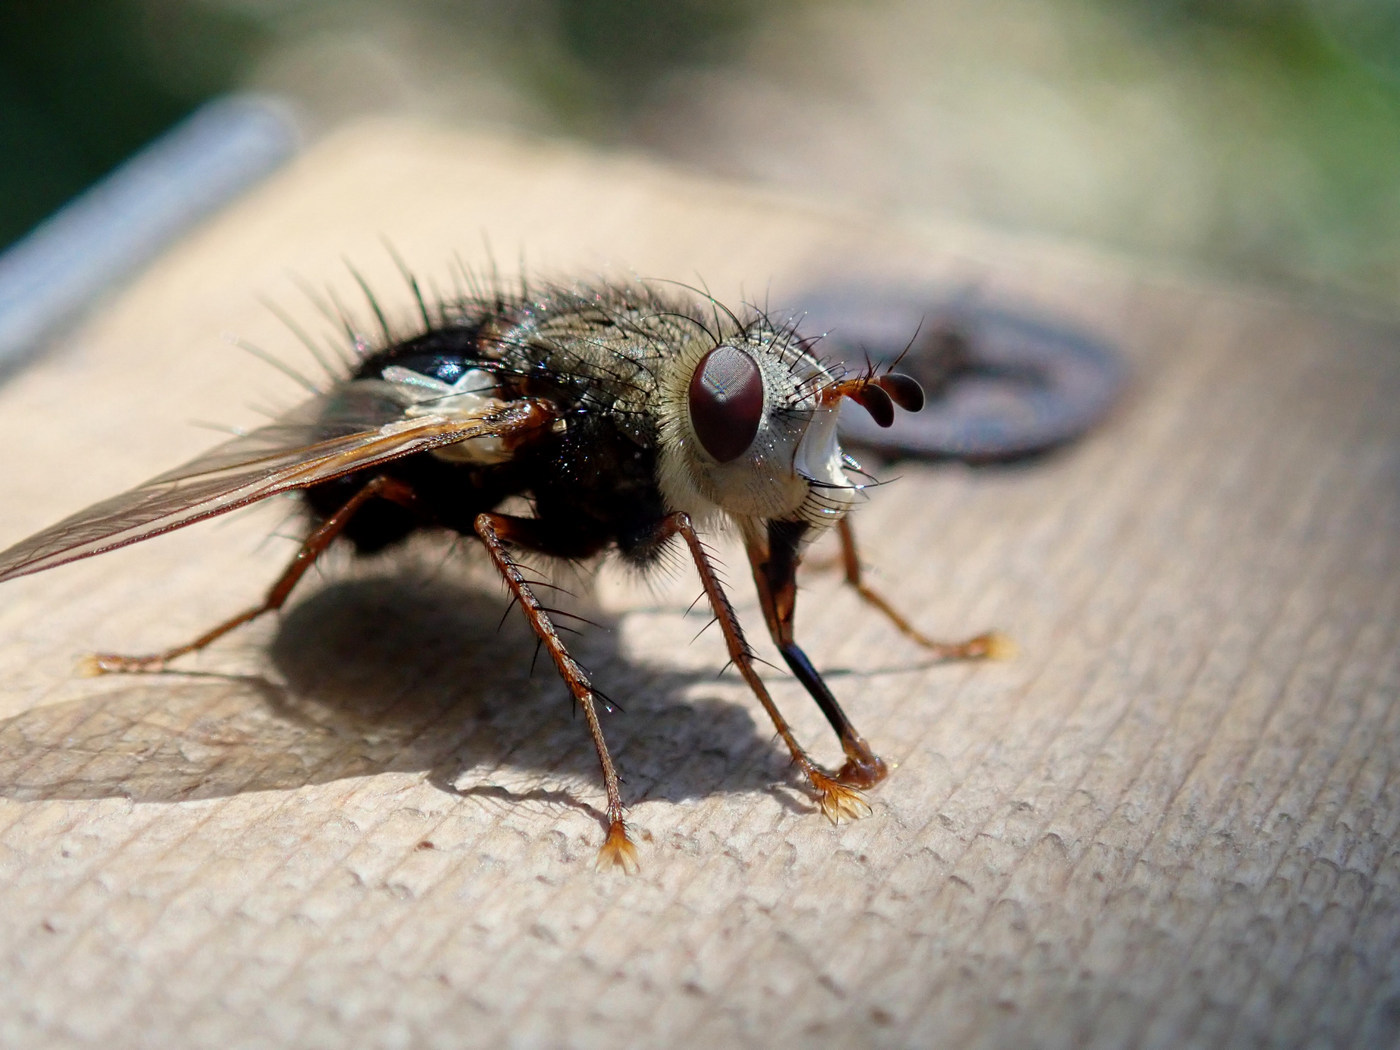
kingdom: Animalia
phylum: Arthropoda
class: Insecta
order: Diptera
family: Tachinidae
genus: Epalpus
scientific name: Epalpus signifer
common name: Early tachinid fly
